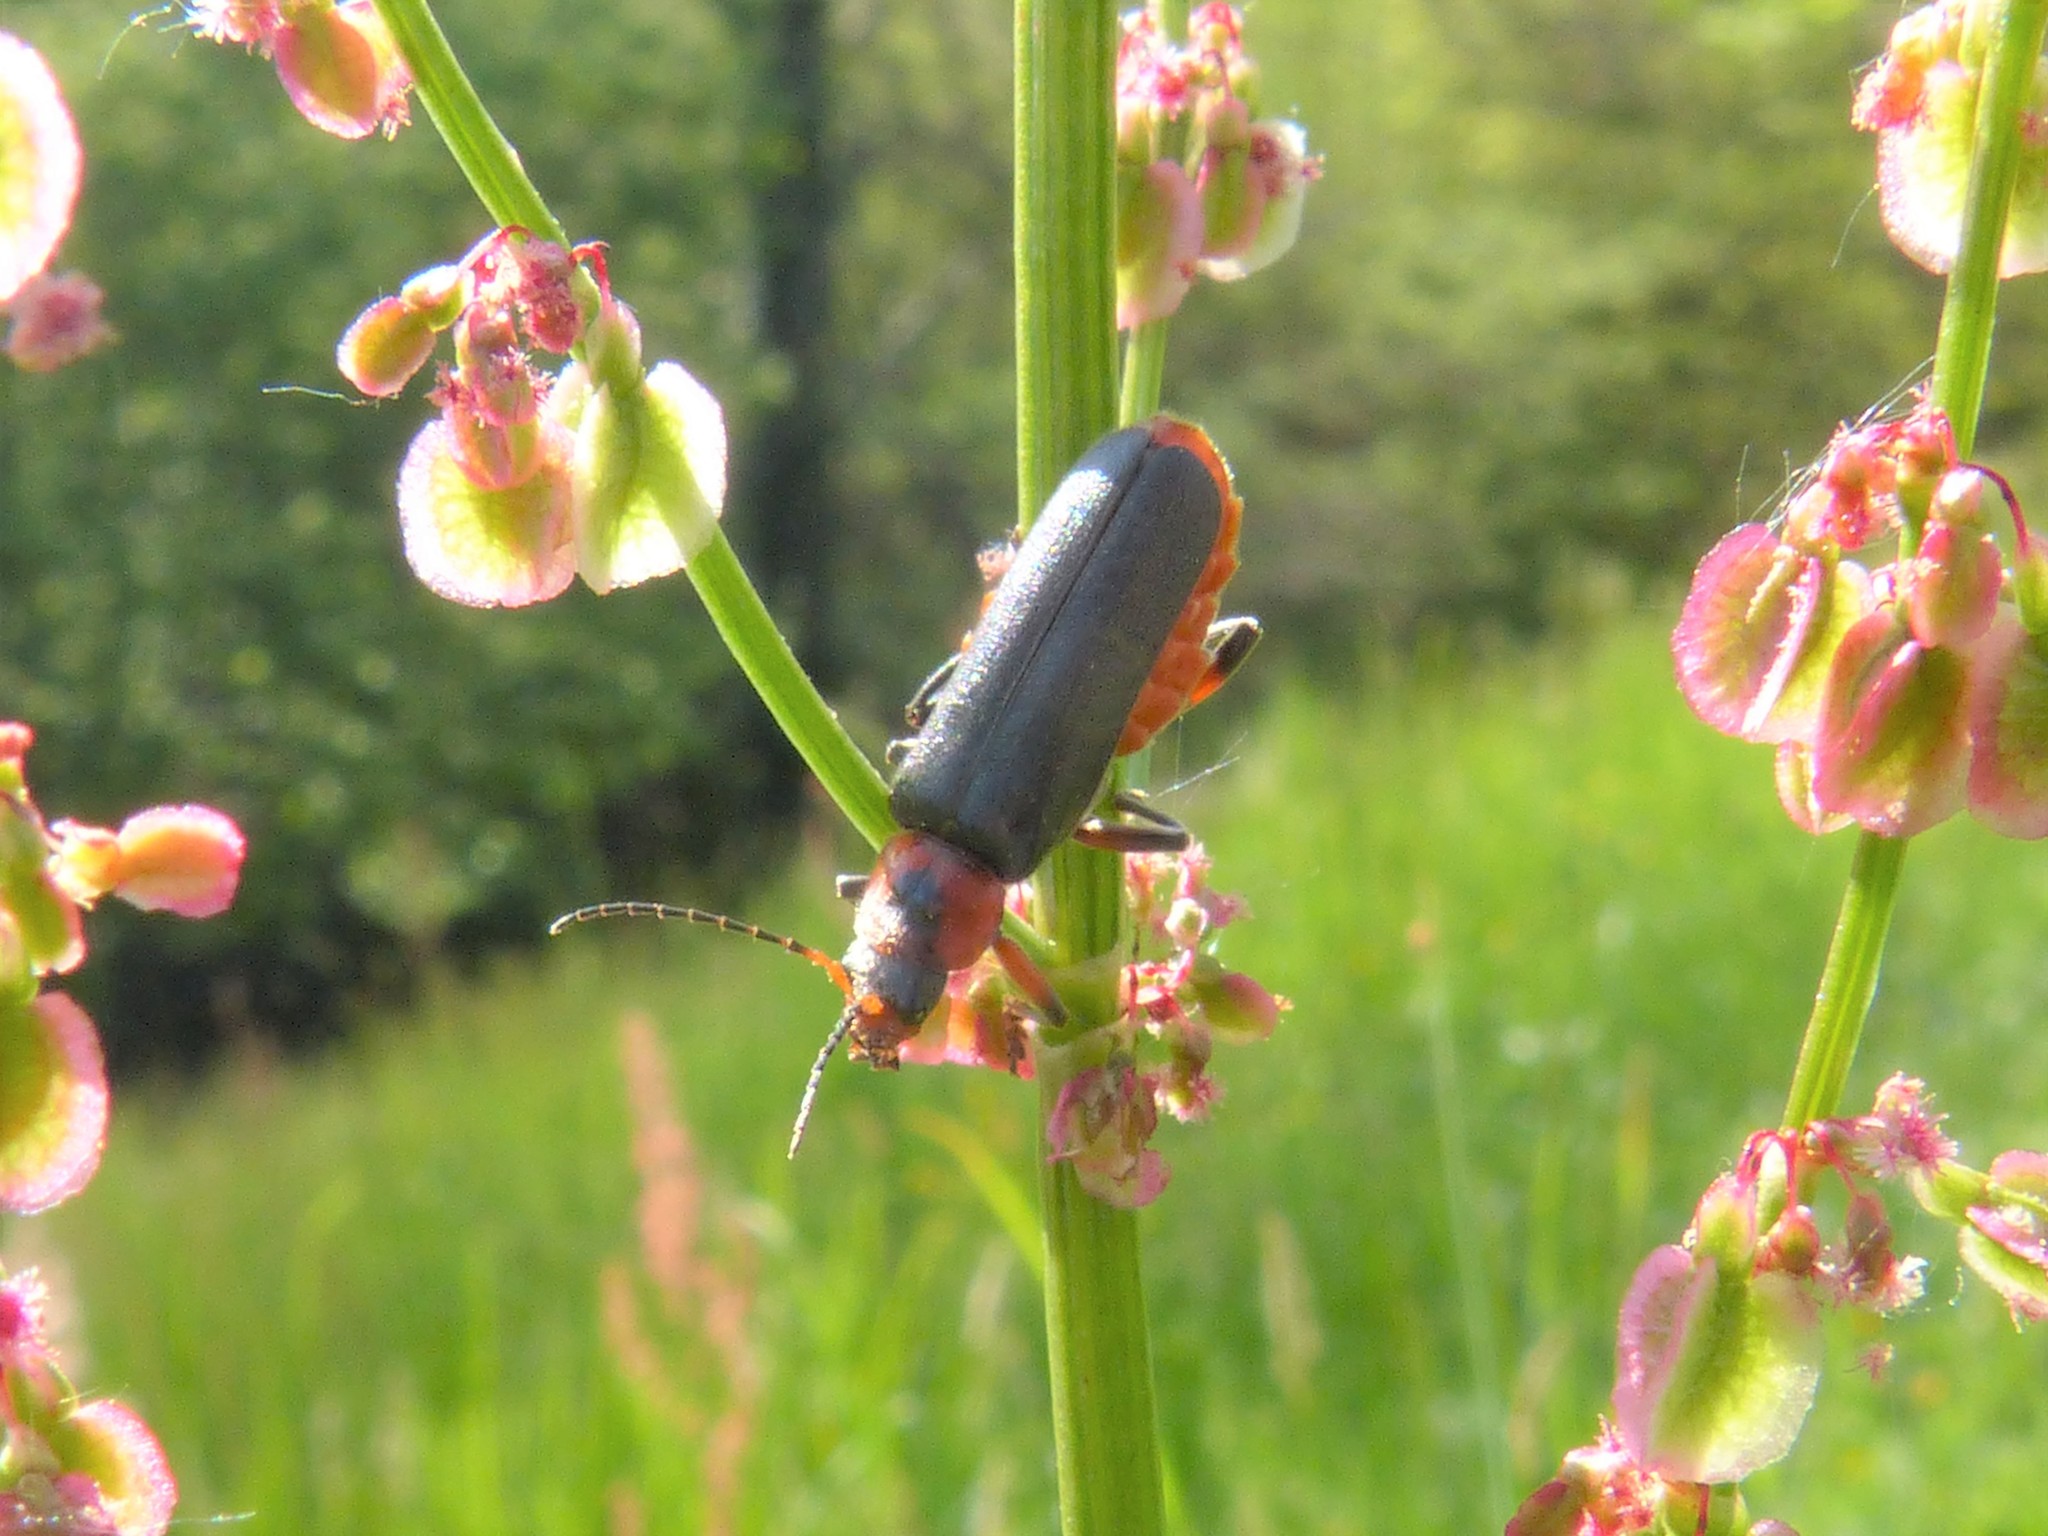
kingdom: Animalia
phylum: Arthropoda
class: Insecta
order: Coleoptera
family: Cantharidae
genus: Cantharis
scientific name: Cantharis rustica
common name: Soldier beetle
